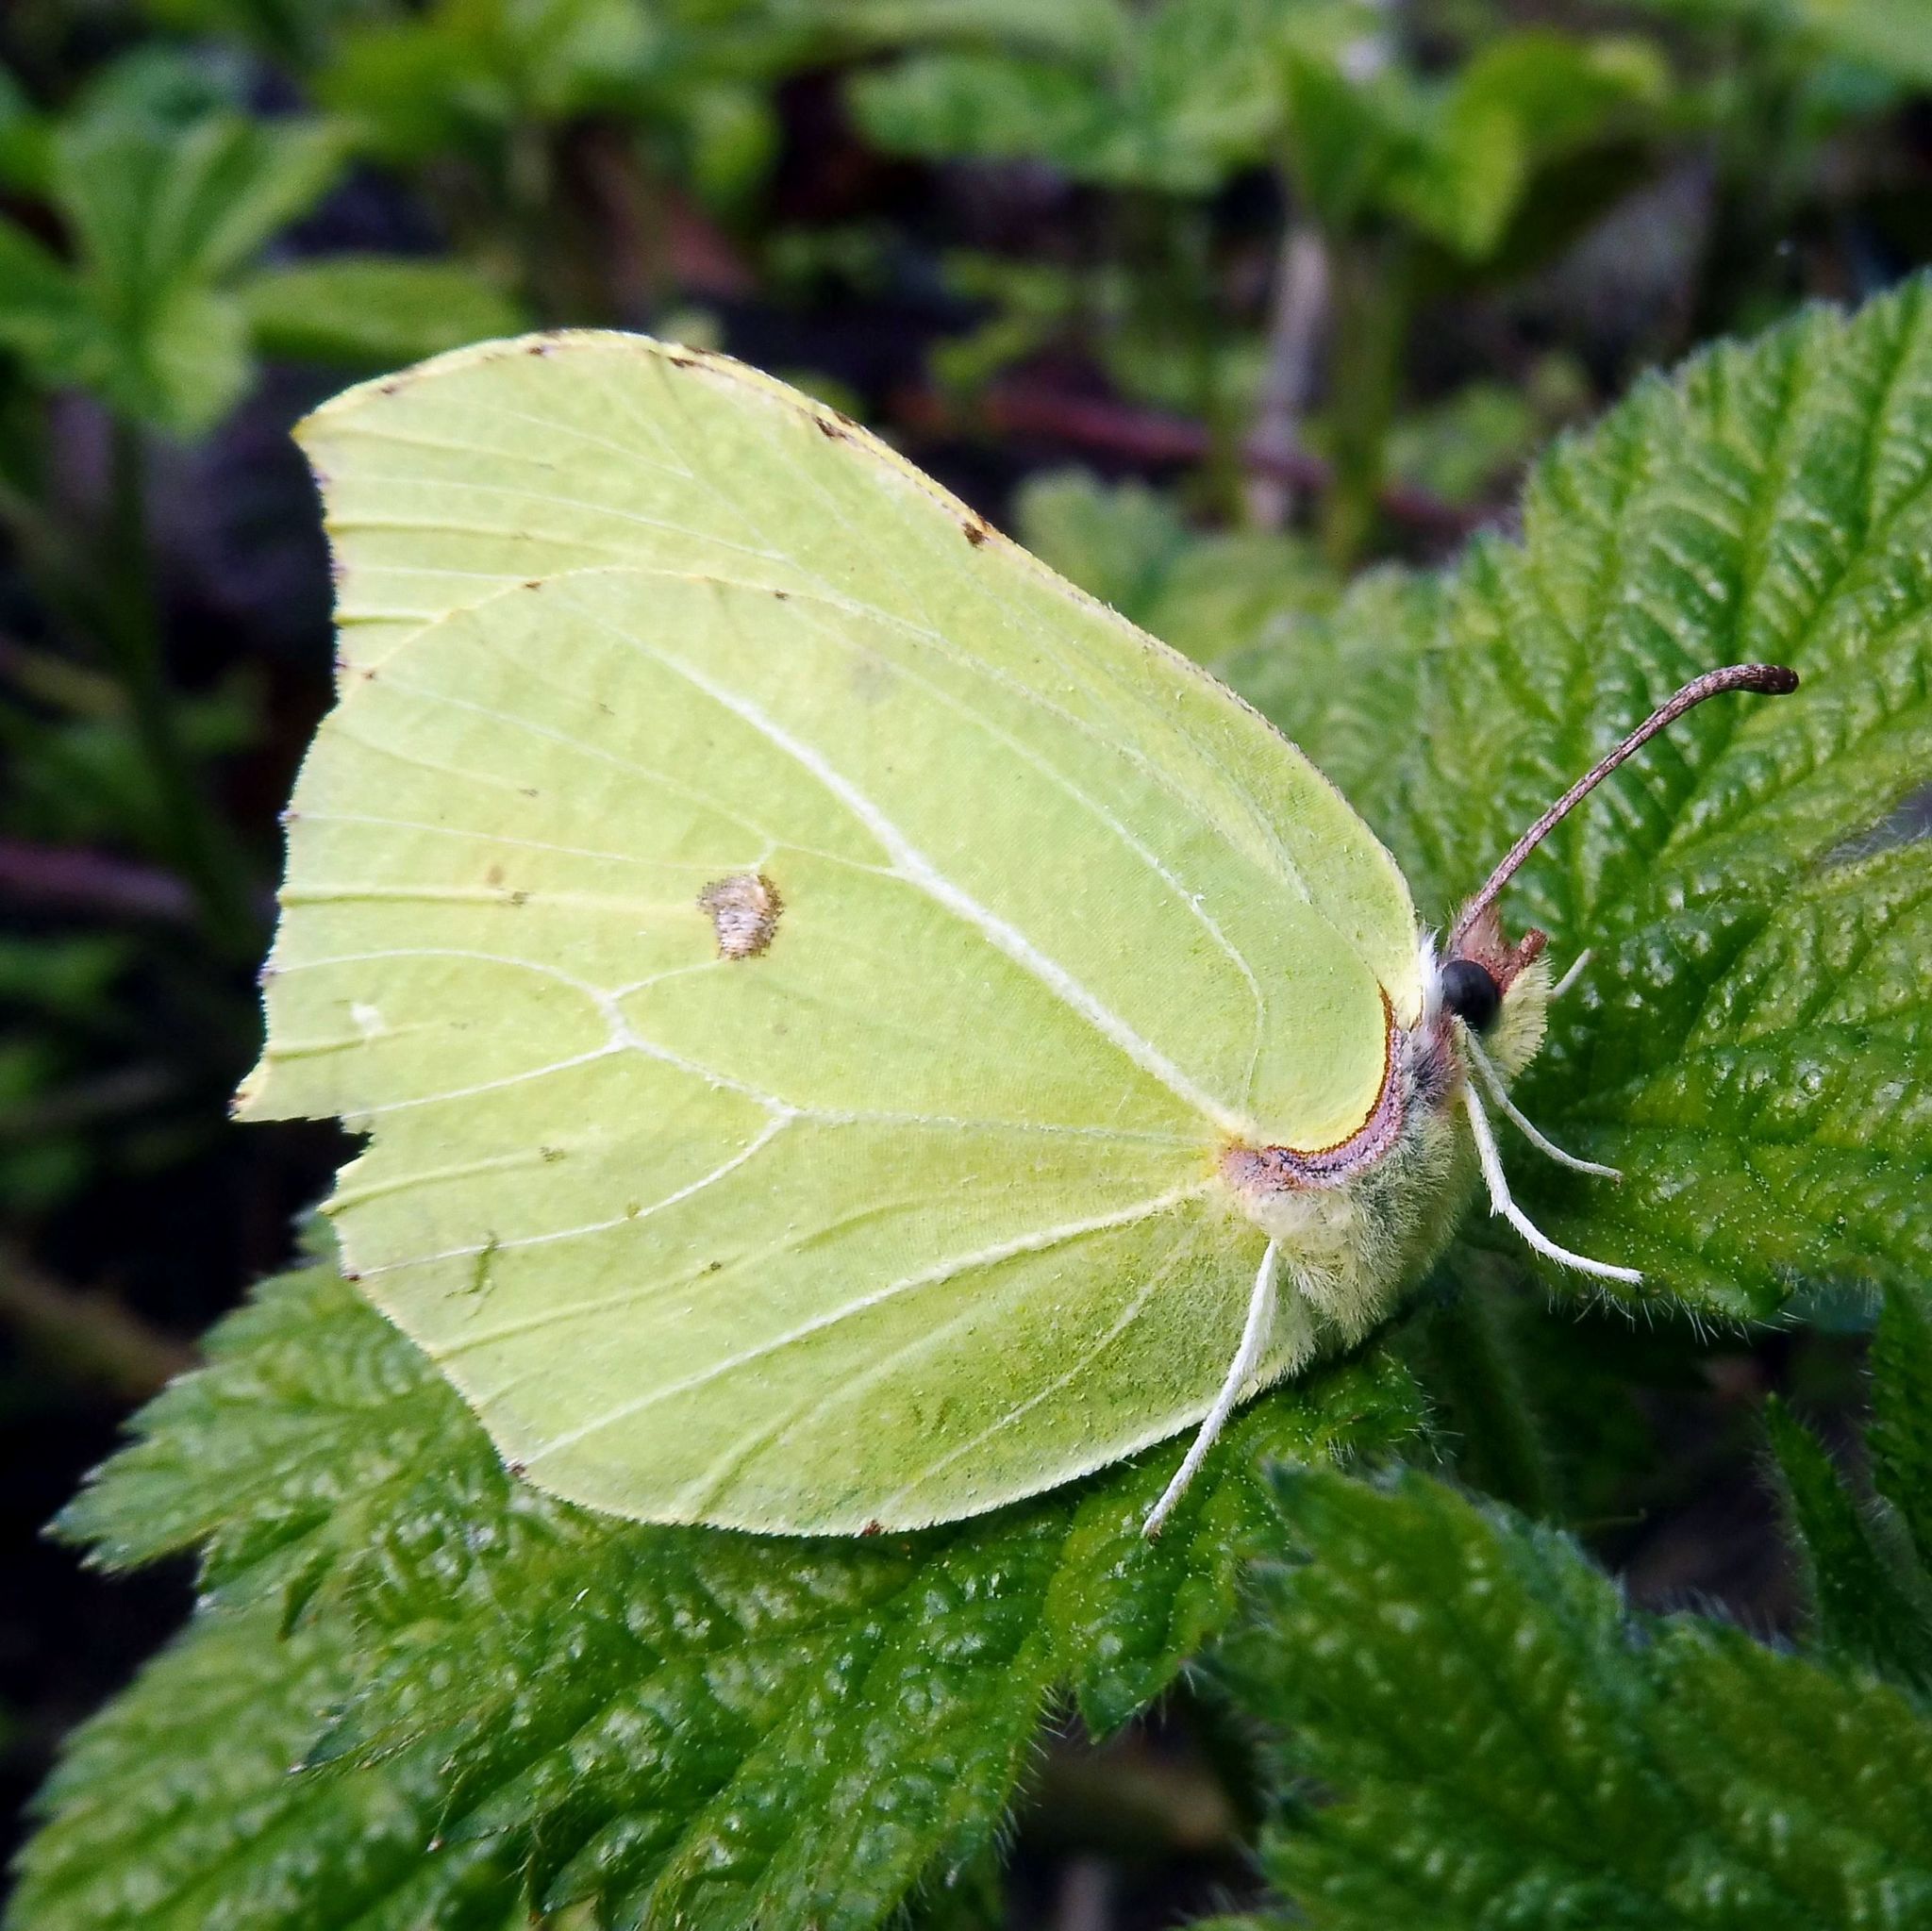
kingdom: Animalia
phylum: Arthropoda
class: Insecta
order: Lepidoptera
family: Pieridae
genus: Gonepteryx
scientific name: Gonepteryx rhamni
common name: Brimstone
